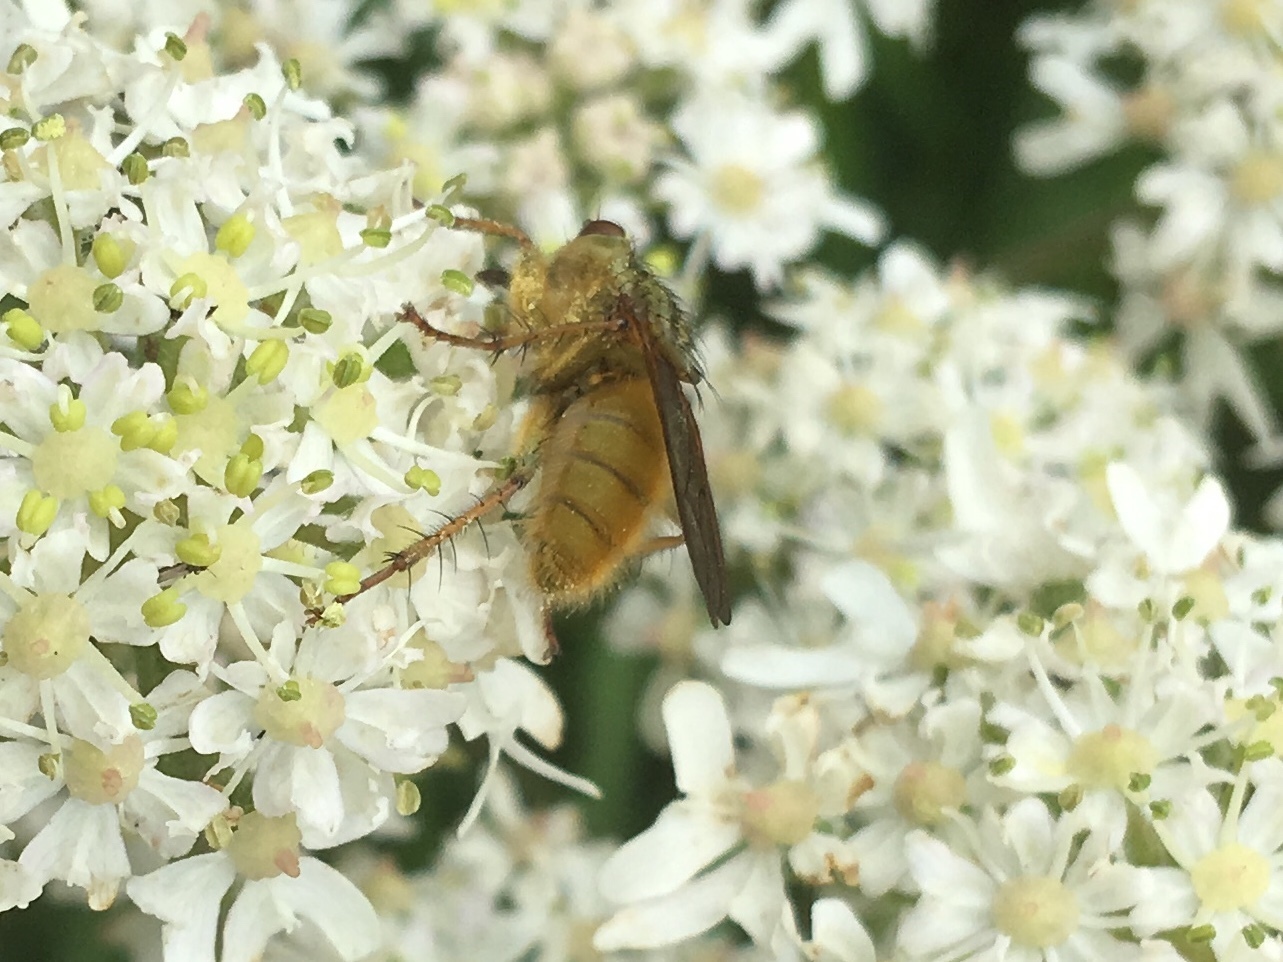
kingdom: Animalia
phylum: Arthropoda
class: Insecta
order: Diptera
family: Scathophagidae
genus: Scathophaga
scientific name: Scathophaga stercoraria
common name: Yellow dung fly
